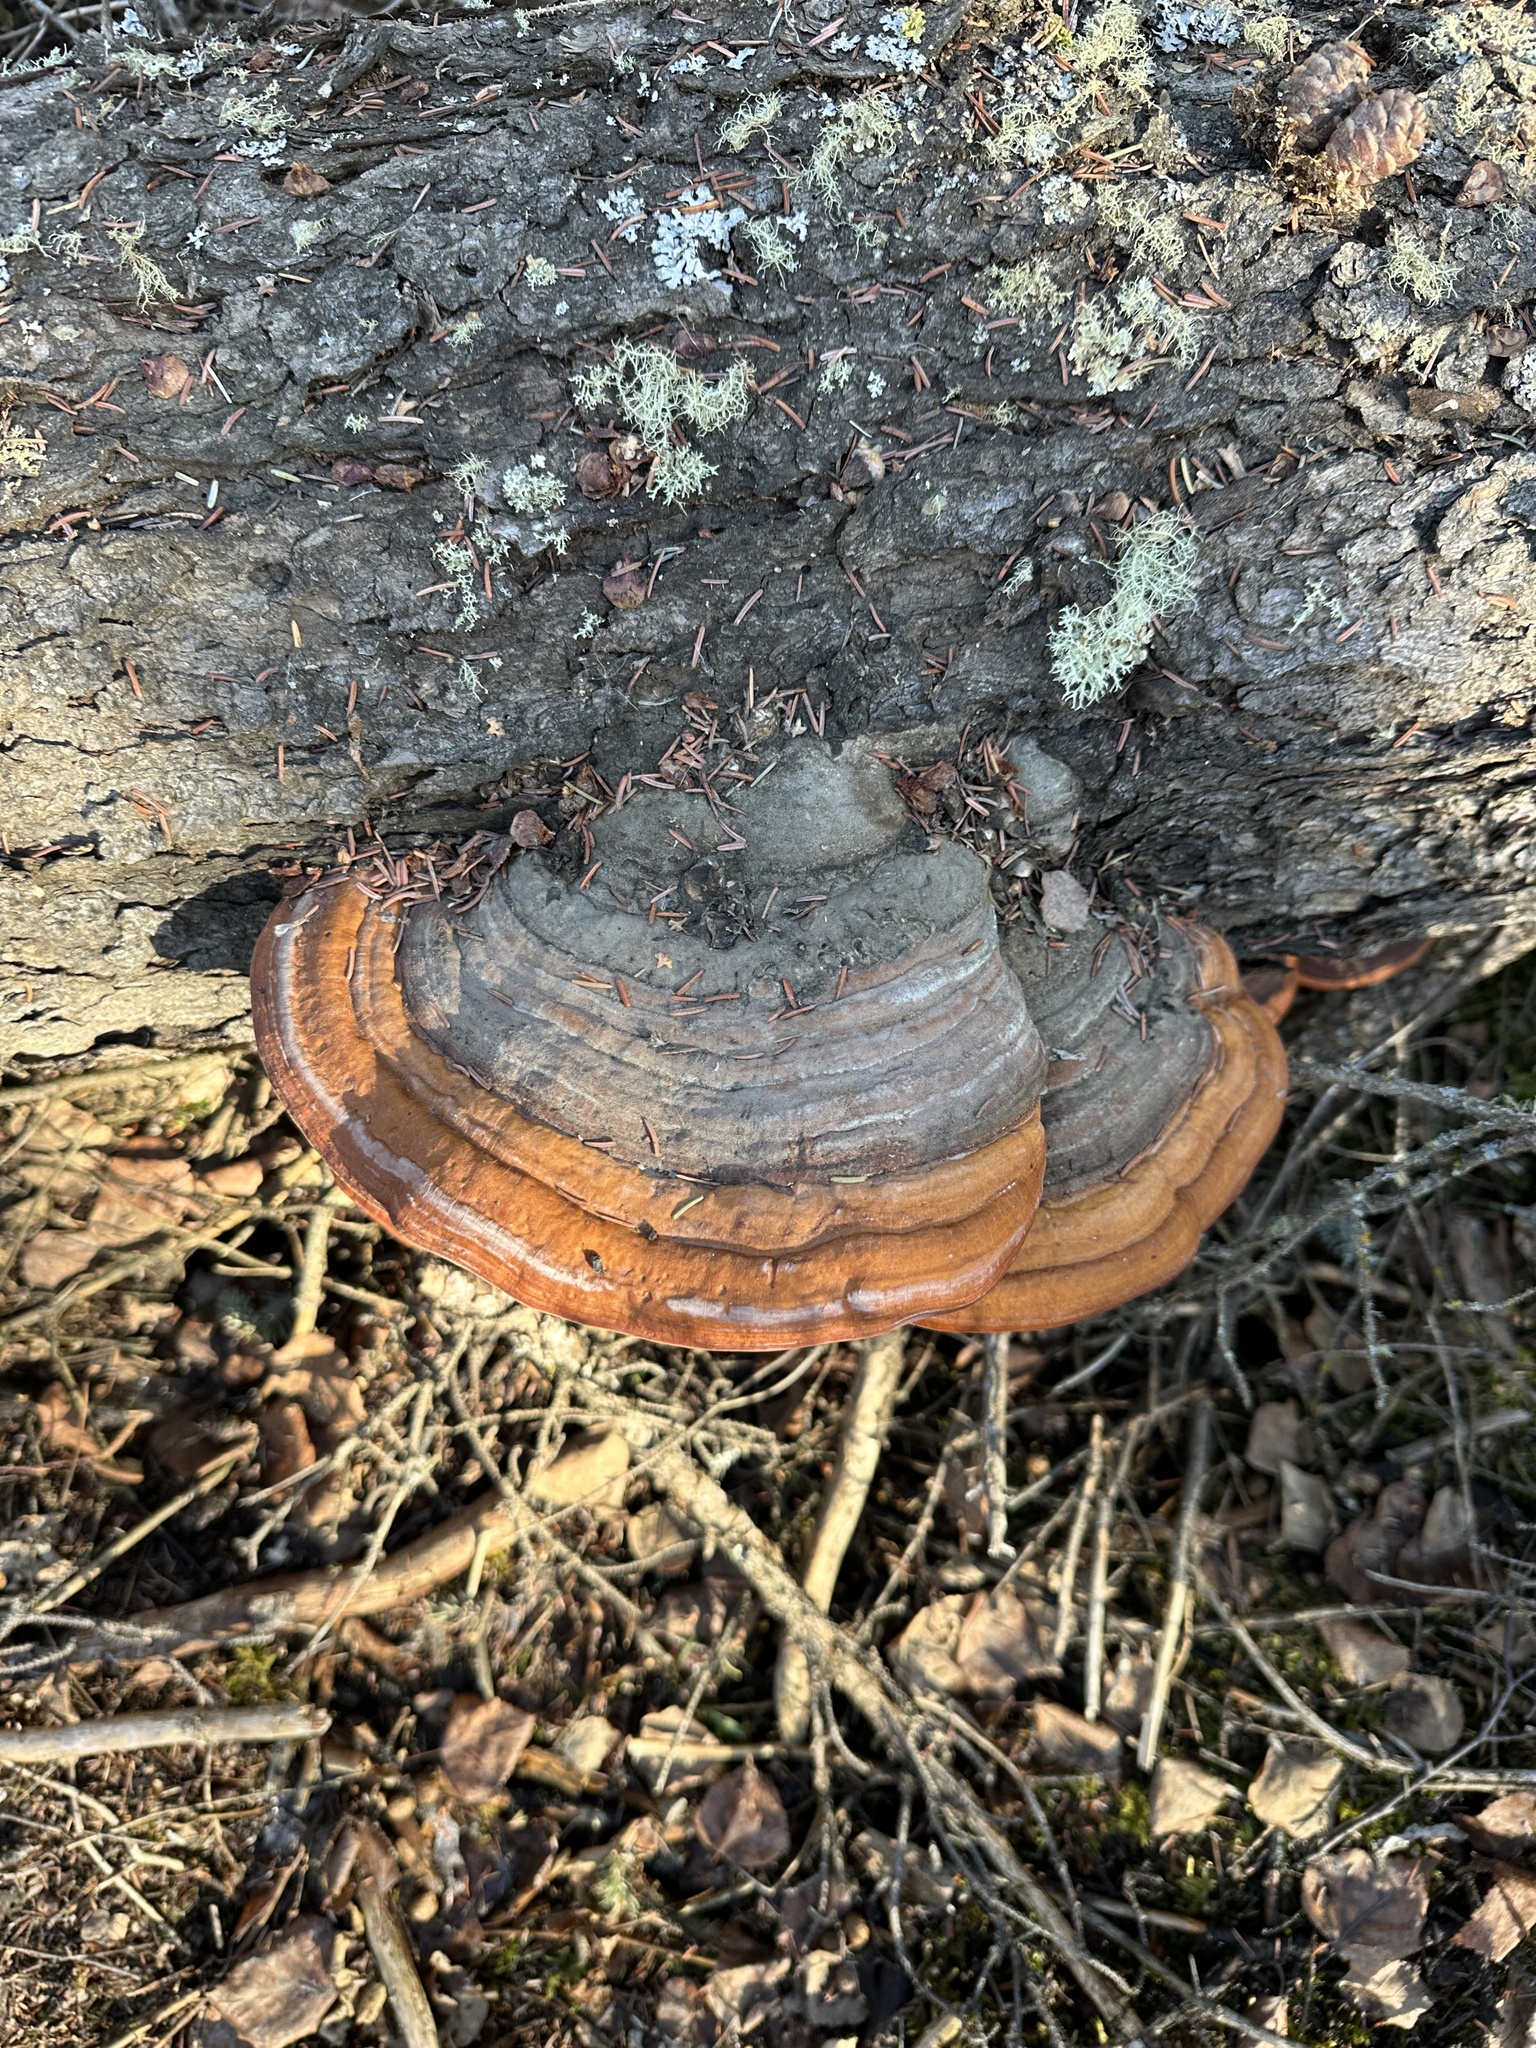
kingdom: Fungi
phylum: Basidiomycota
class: Agaricomycetes
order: Polyporales
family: Fomitopsidaceae
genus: Fomitopsis
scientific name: Fomitopsis mounceae
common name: Northern red belt
